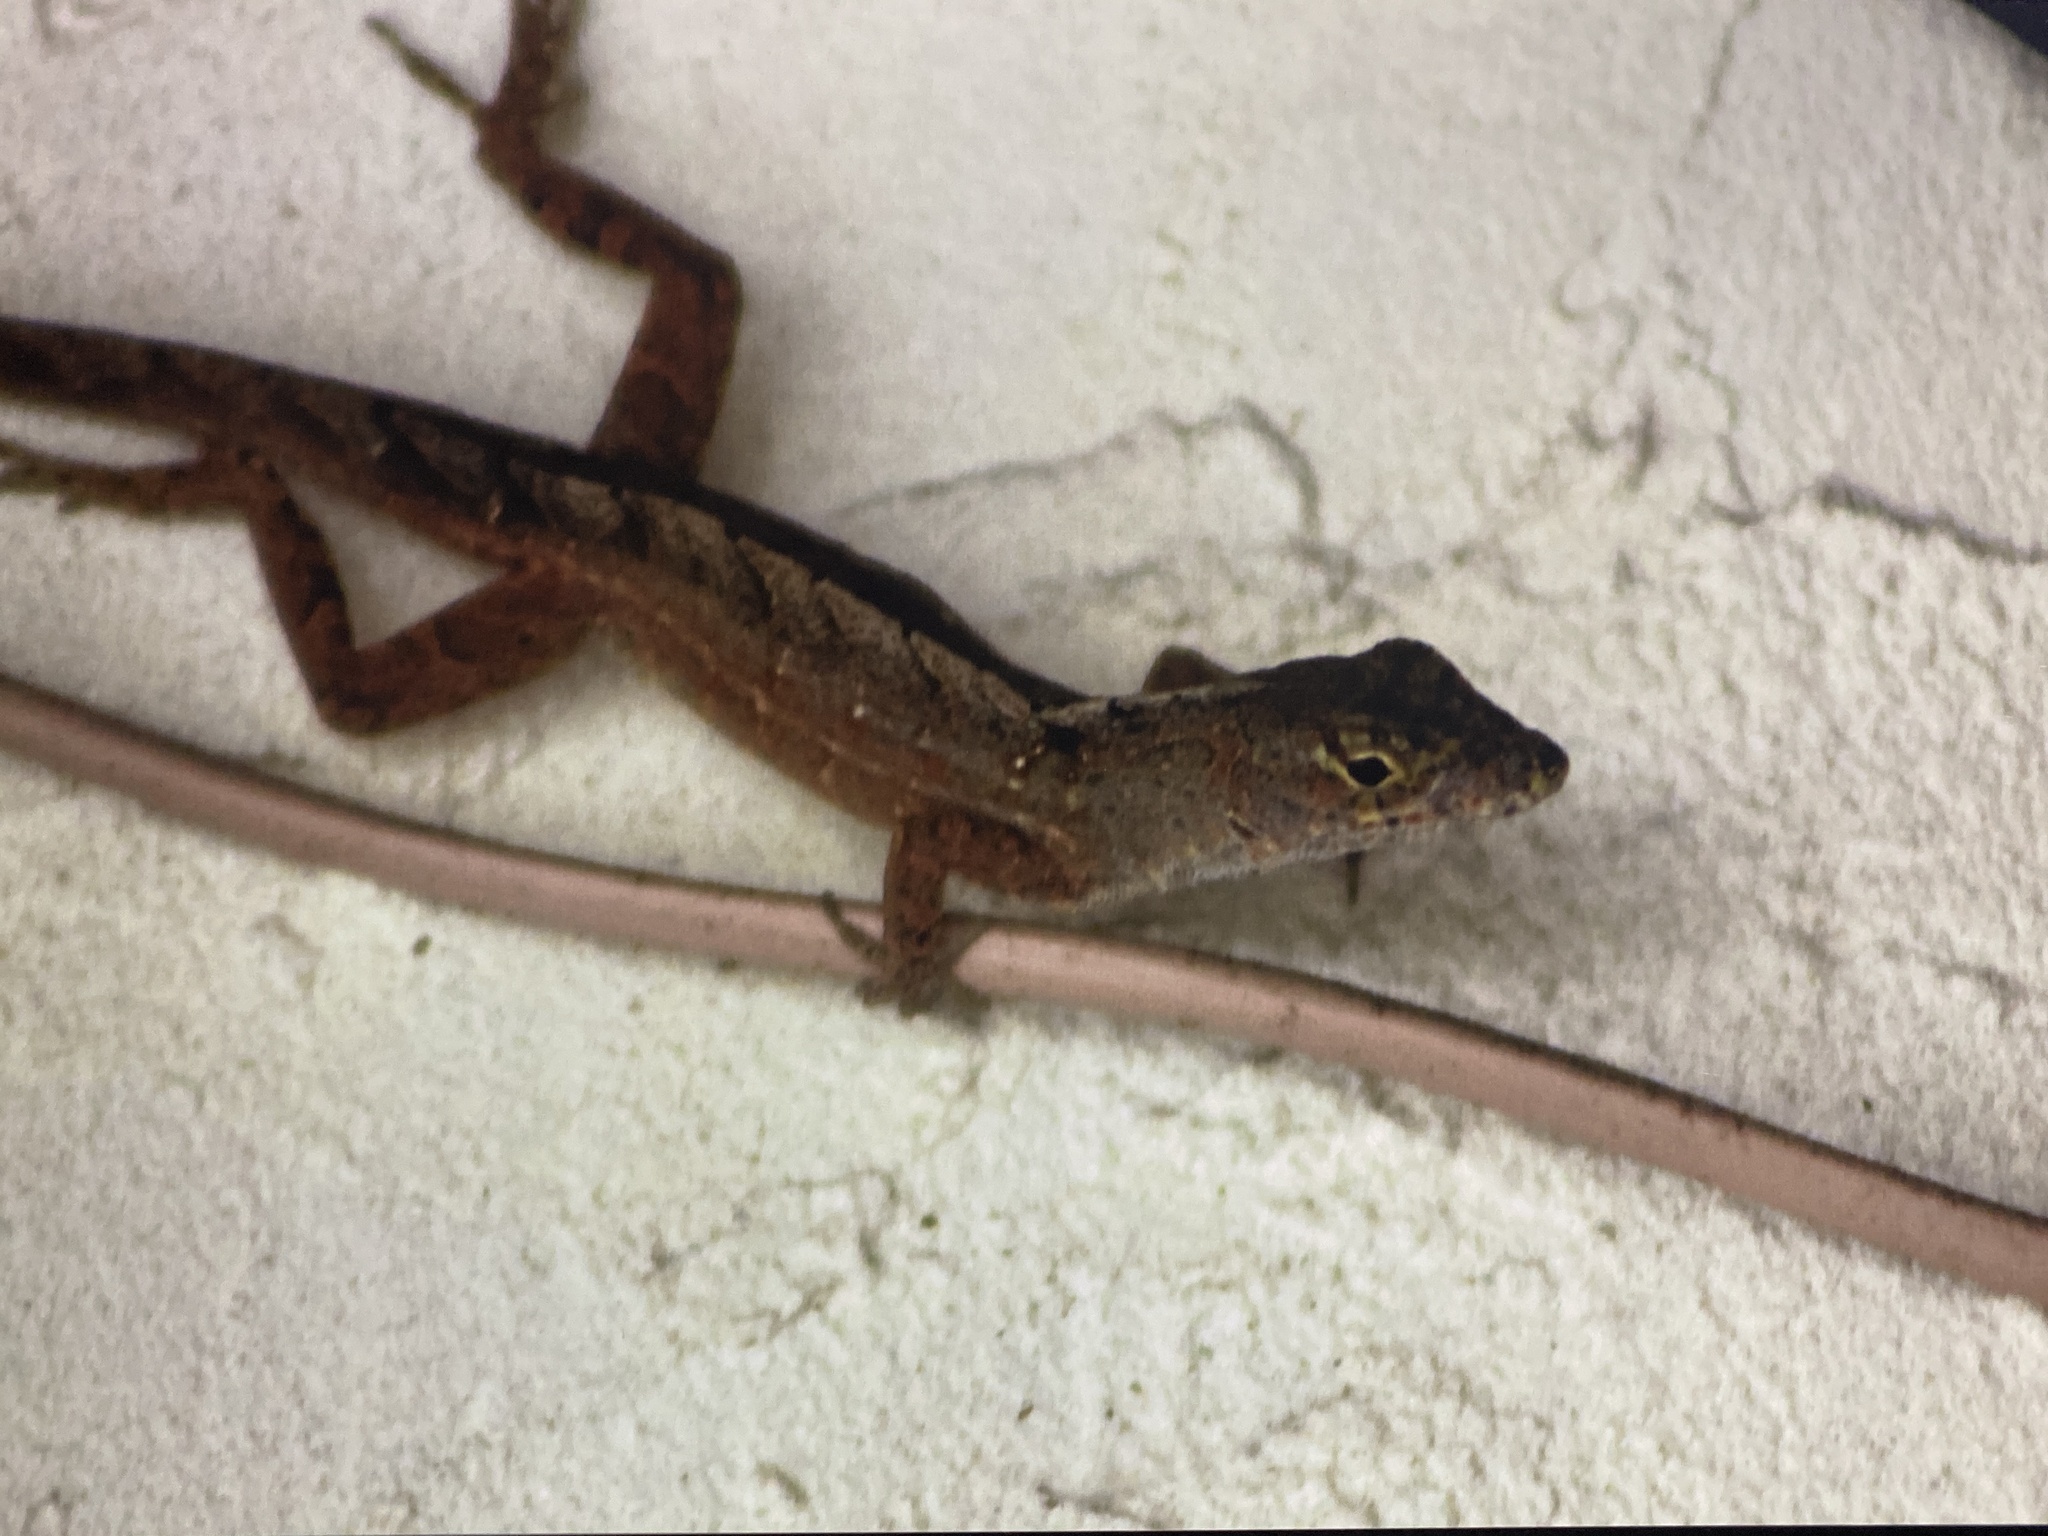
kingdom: Animalia
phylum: Chordata
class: Squamata
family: Dactyloidae
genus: Anolis
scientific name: Anolis sagrei
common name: Brown anole
